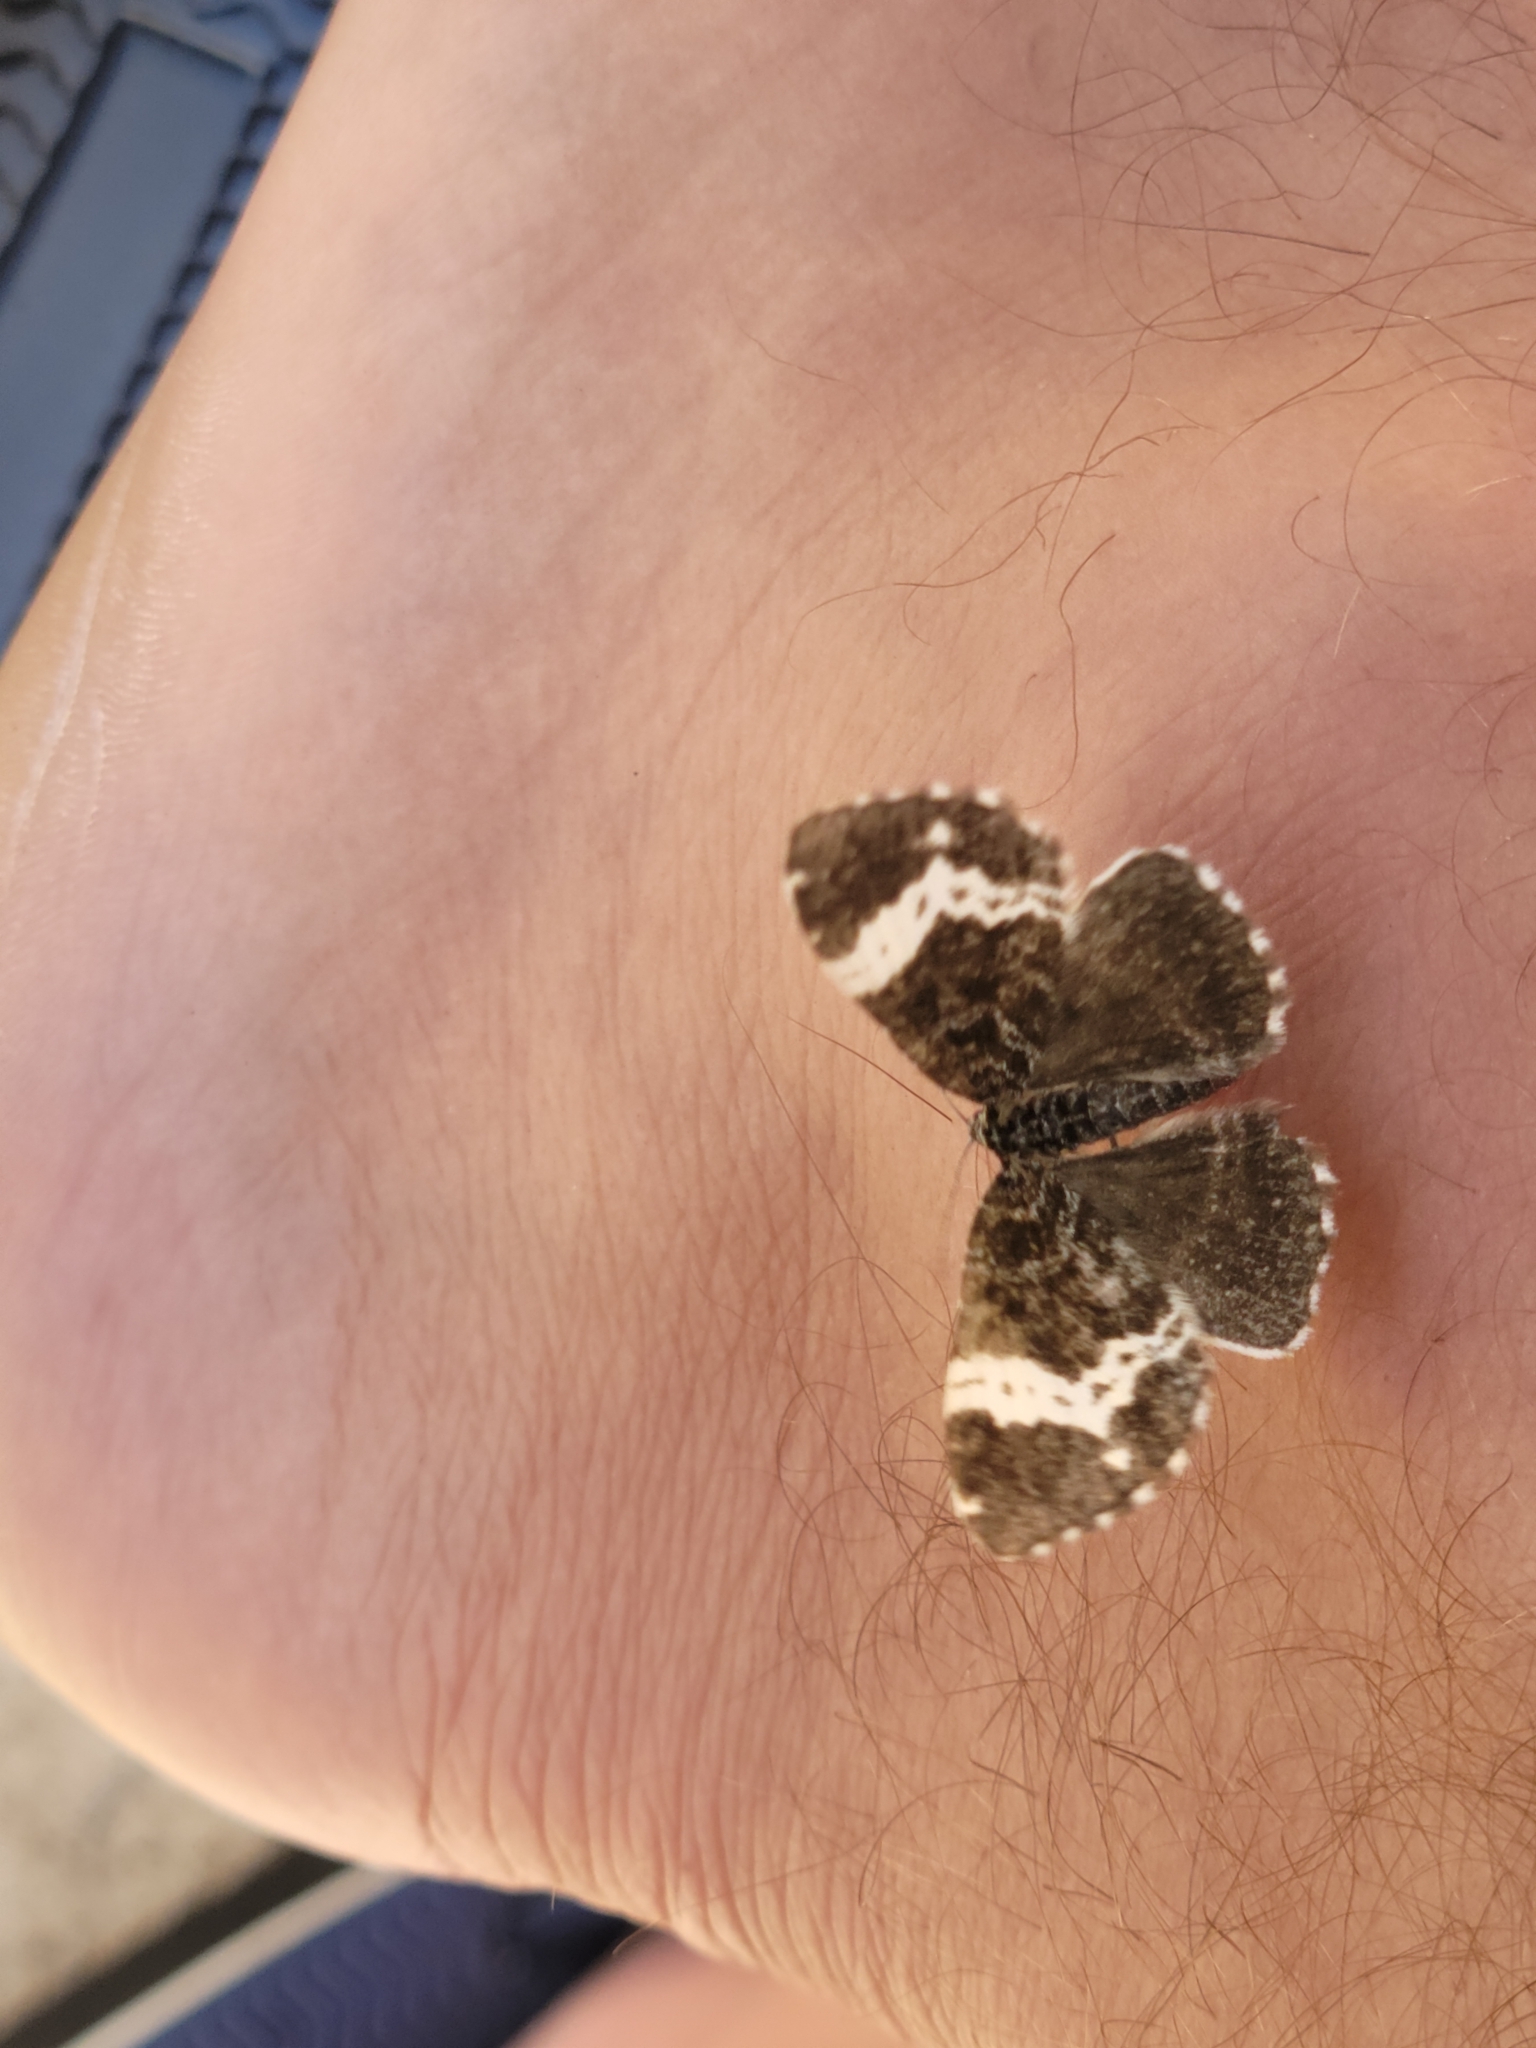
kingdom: Animalia
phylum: Arthropoda
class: Insecta
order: Lepidoptera
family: Geometridae
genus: Rheumaptera
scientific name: Rheumaptera hastata
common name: Argent & sable
